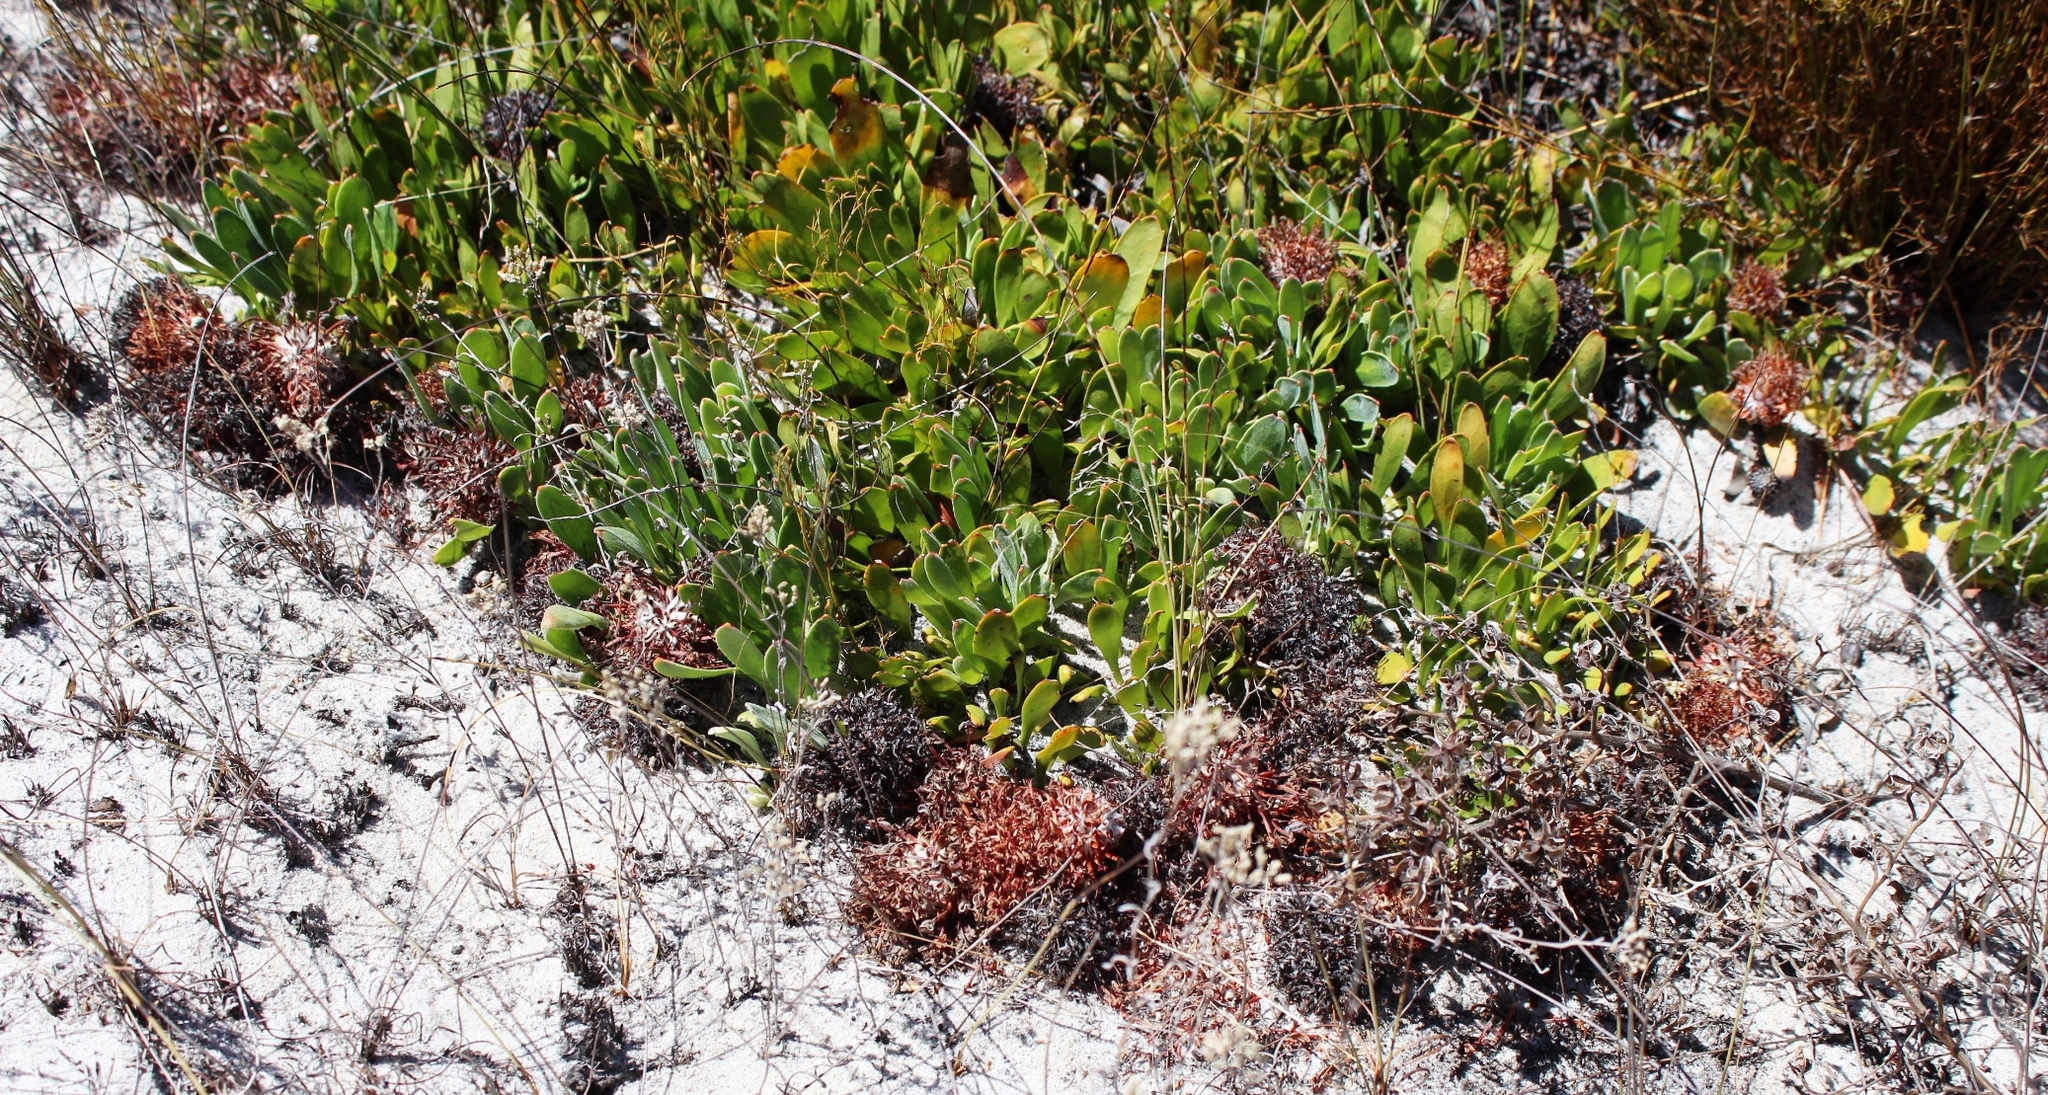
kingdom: Plantae
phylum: Tracheophyta
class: Magnoliopsida
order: Proteales
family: Proteaceae
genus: Leucospermum
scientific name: Leucospermum hypophyllocarpodendron
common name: Snakestem pincushion
